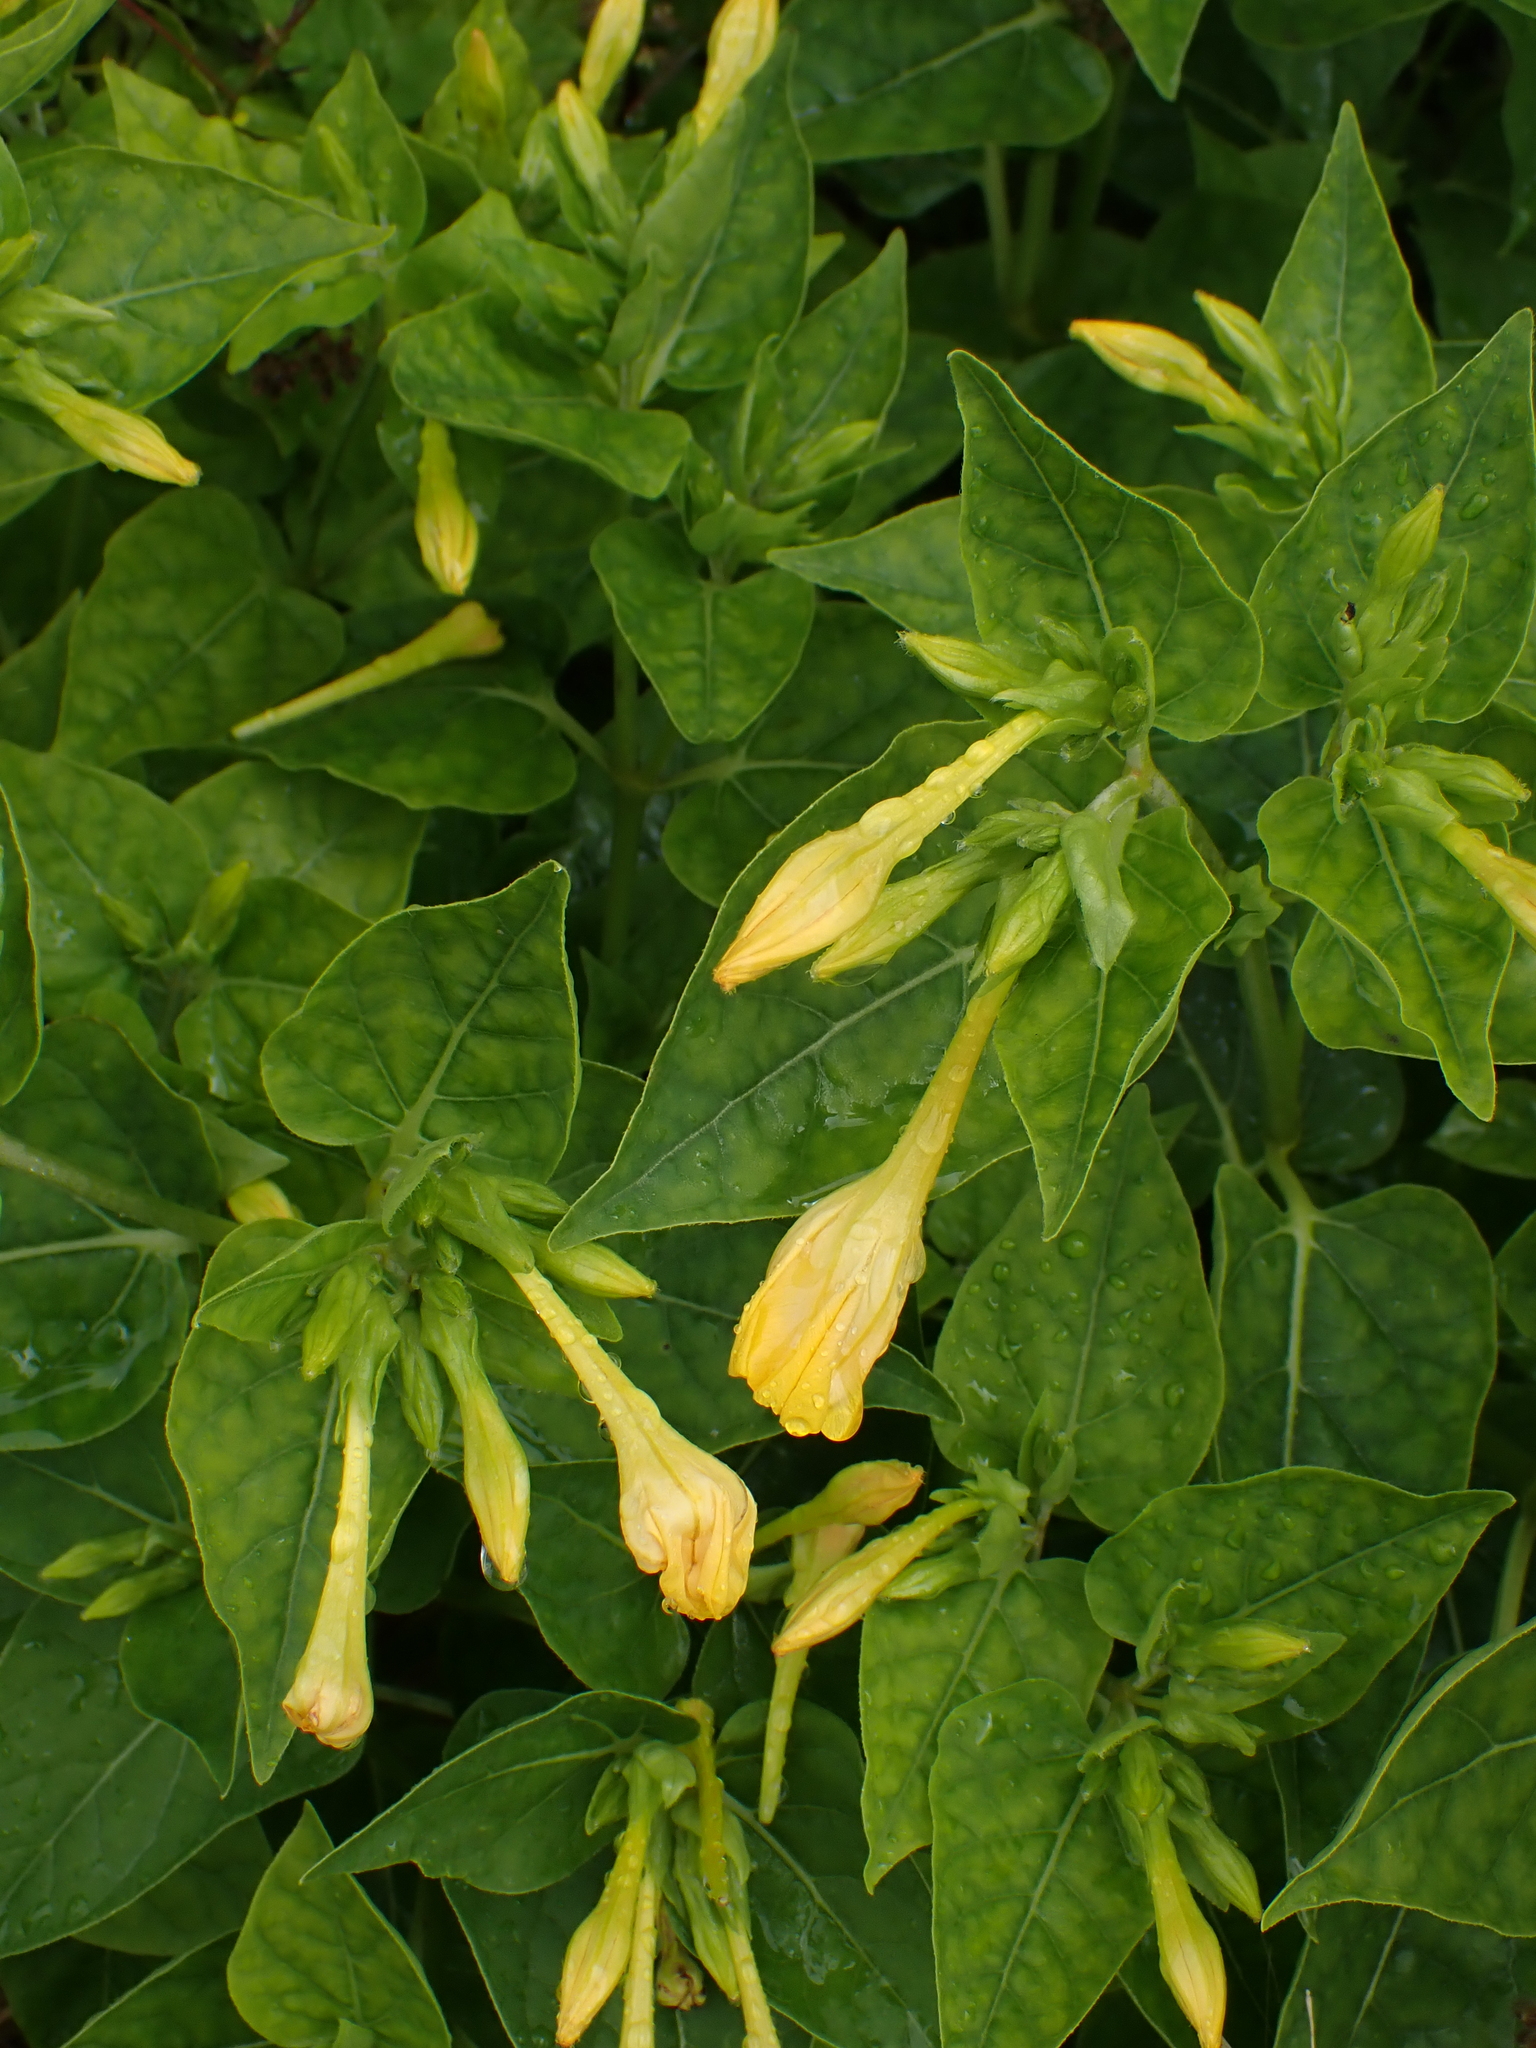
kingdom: Plantae
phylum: Tracheophyta
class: Magnoliopsida
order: Caryophyllales
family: Nyctaginaceae
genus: Mirabilis
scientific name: Mirabilis jalapa
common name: Marvel-of-peru
